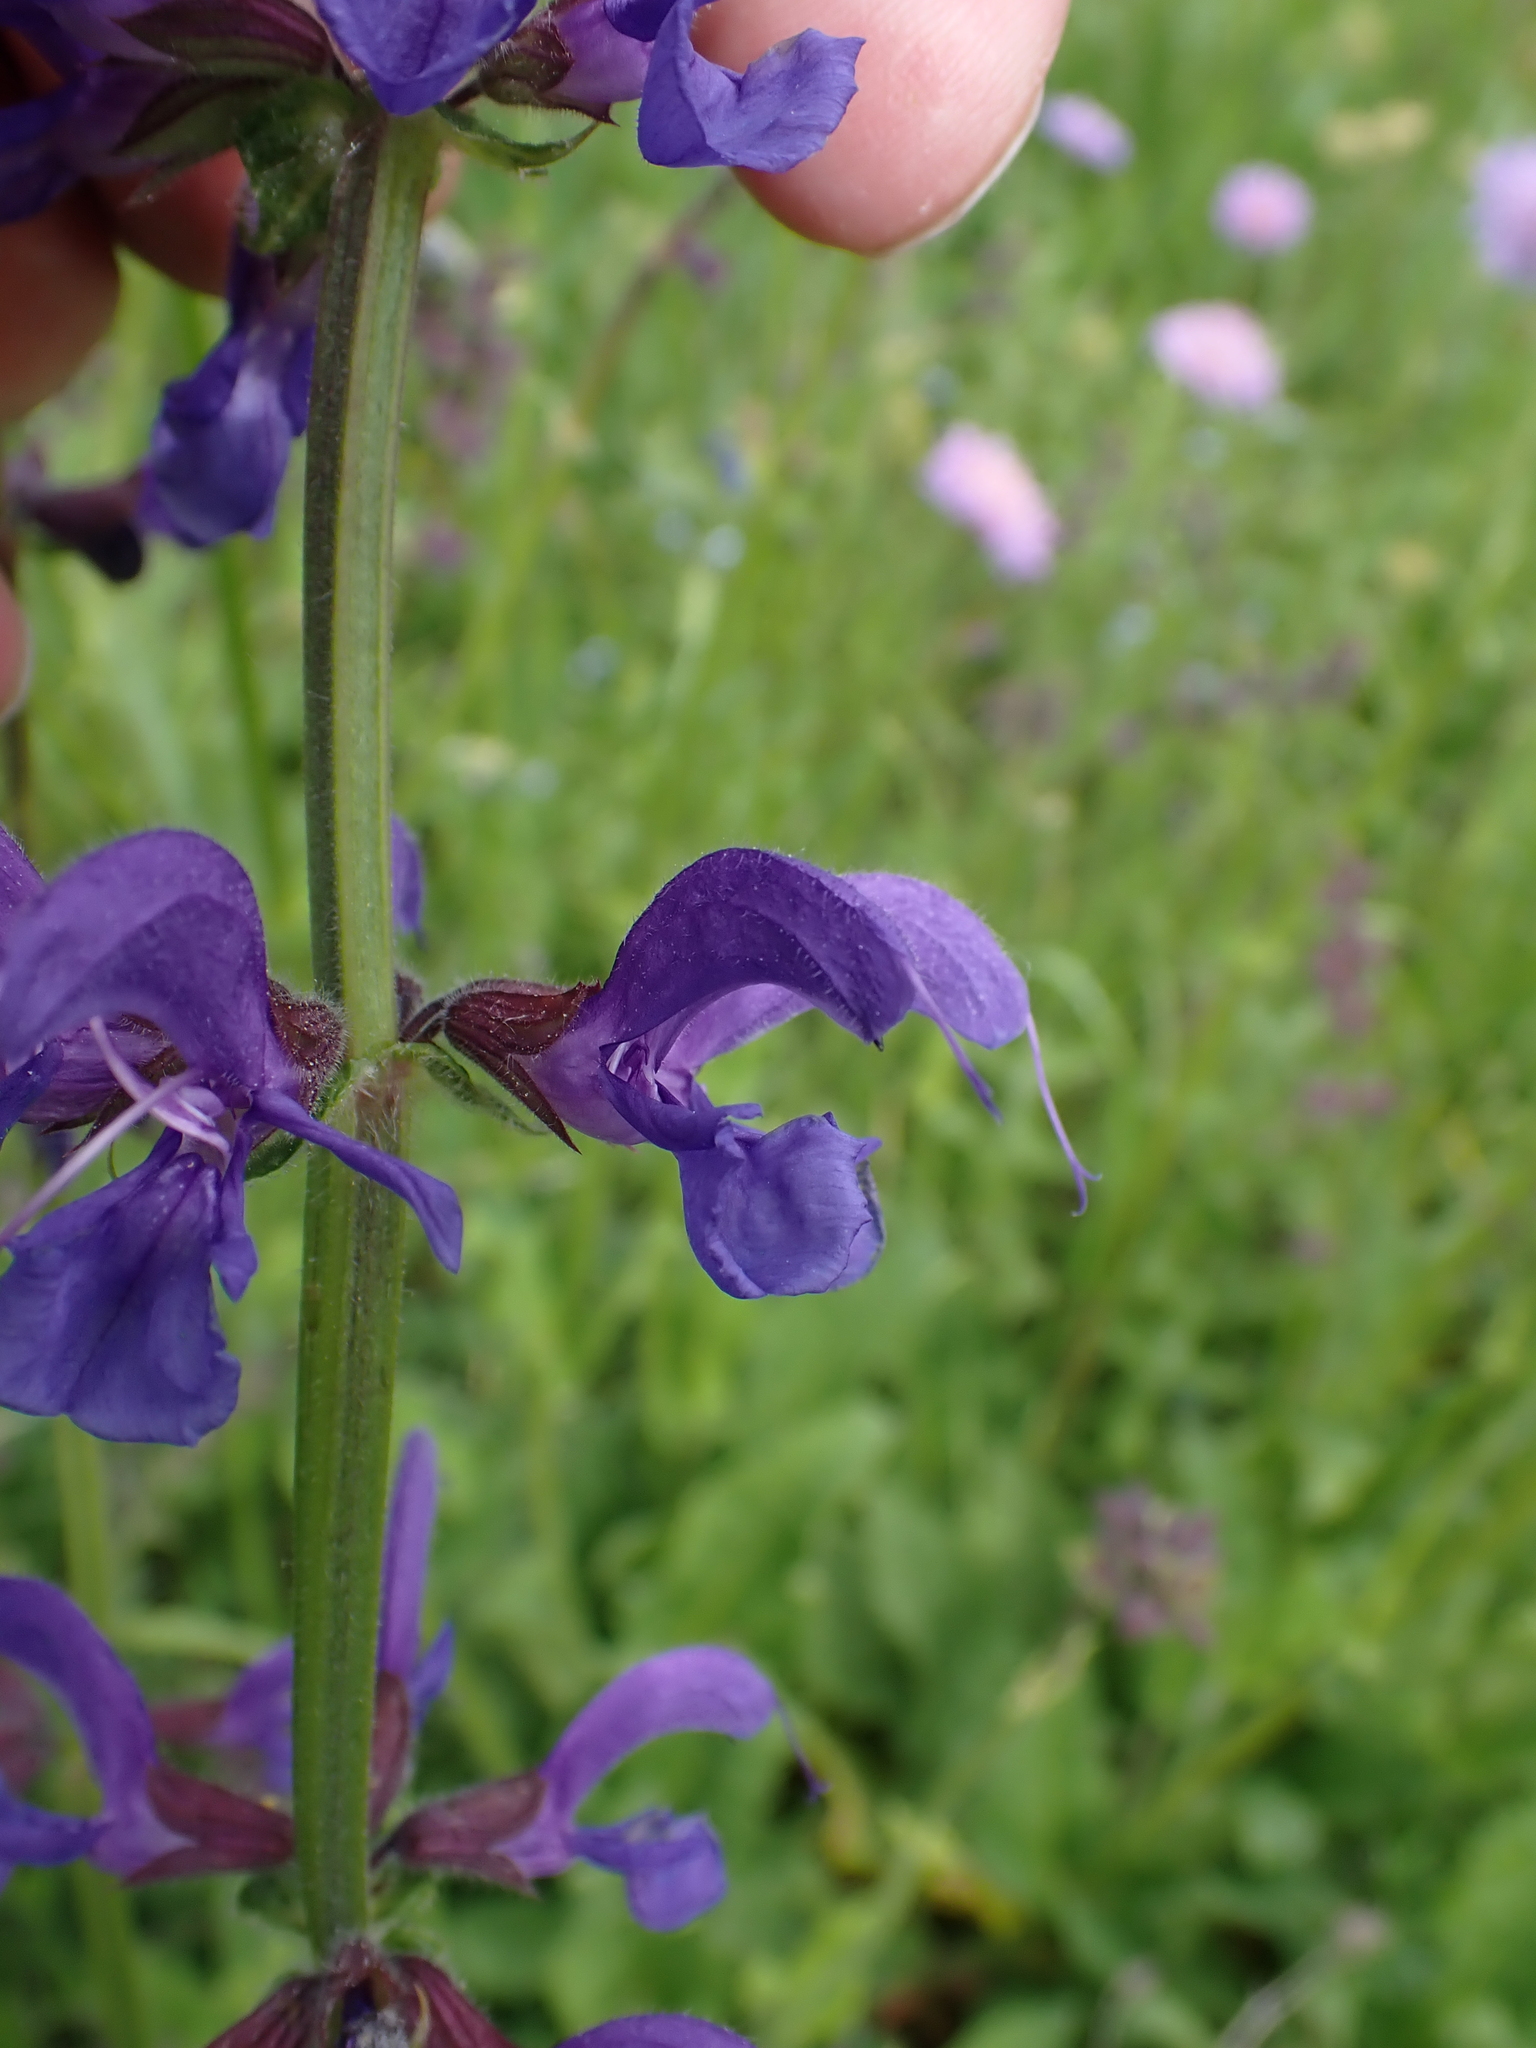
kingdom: Plantae
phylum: Tracheophyta
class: Magnoliopsida
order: Lamiales
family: Lamiaceae
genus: Salvia
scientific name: Salvia pratensis
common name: Meadow sage
